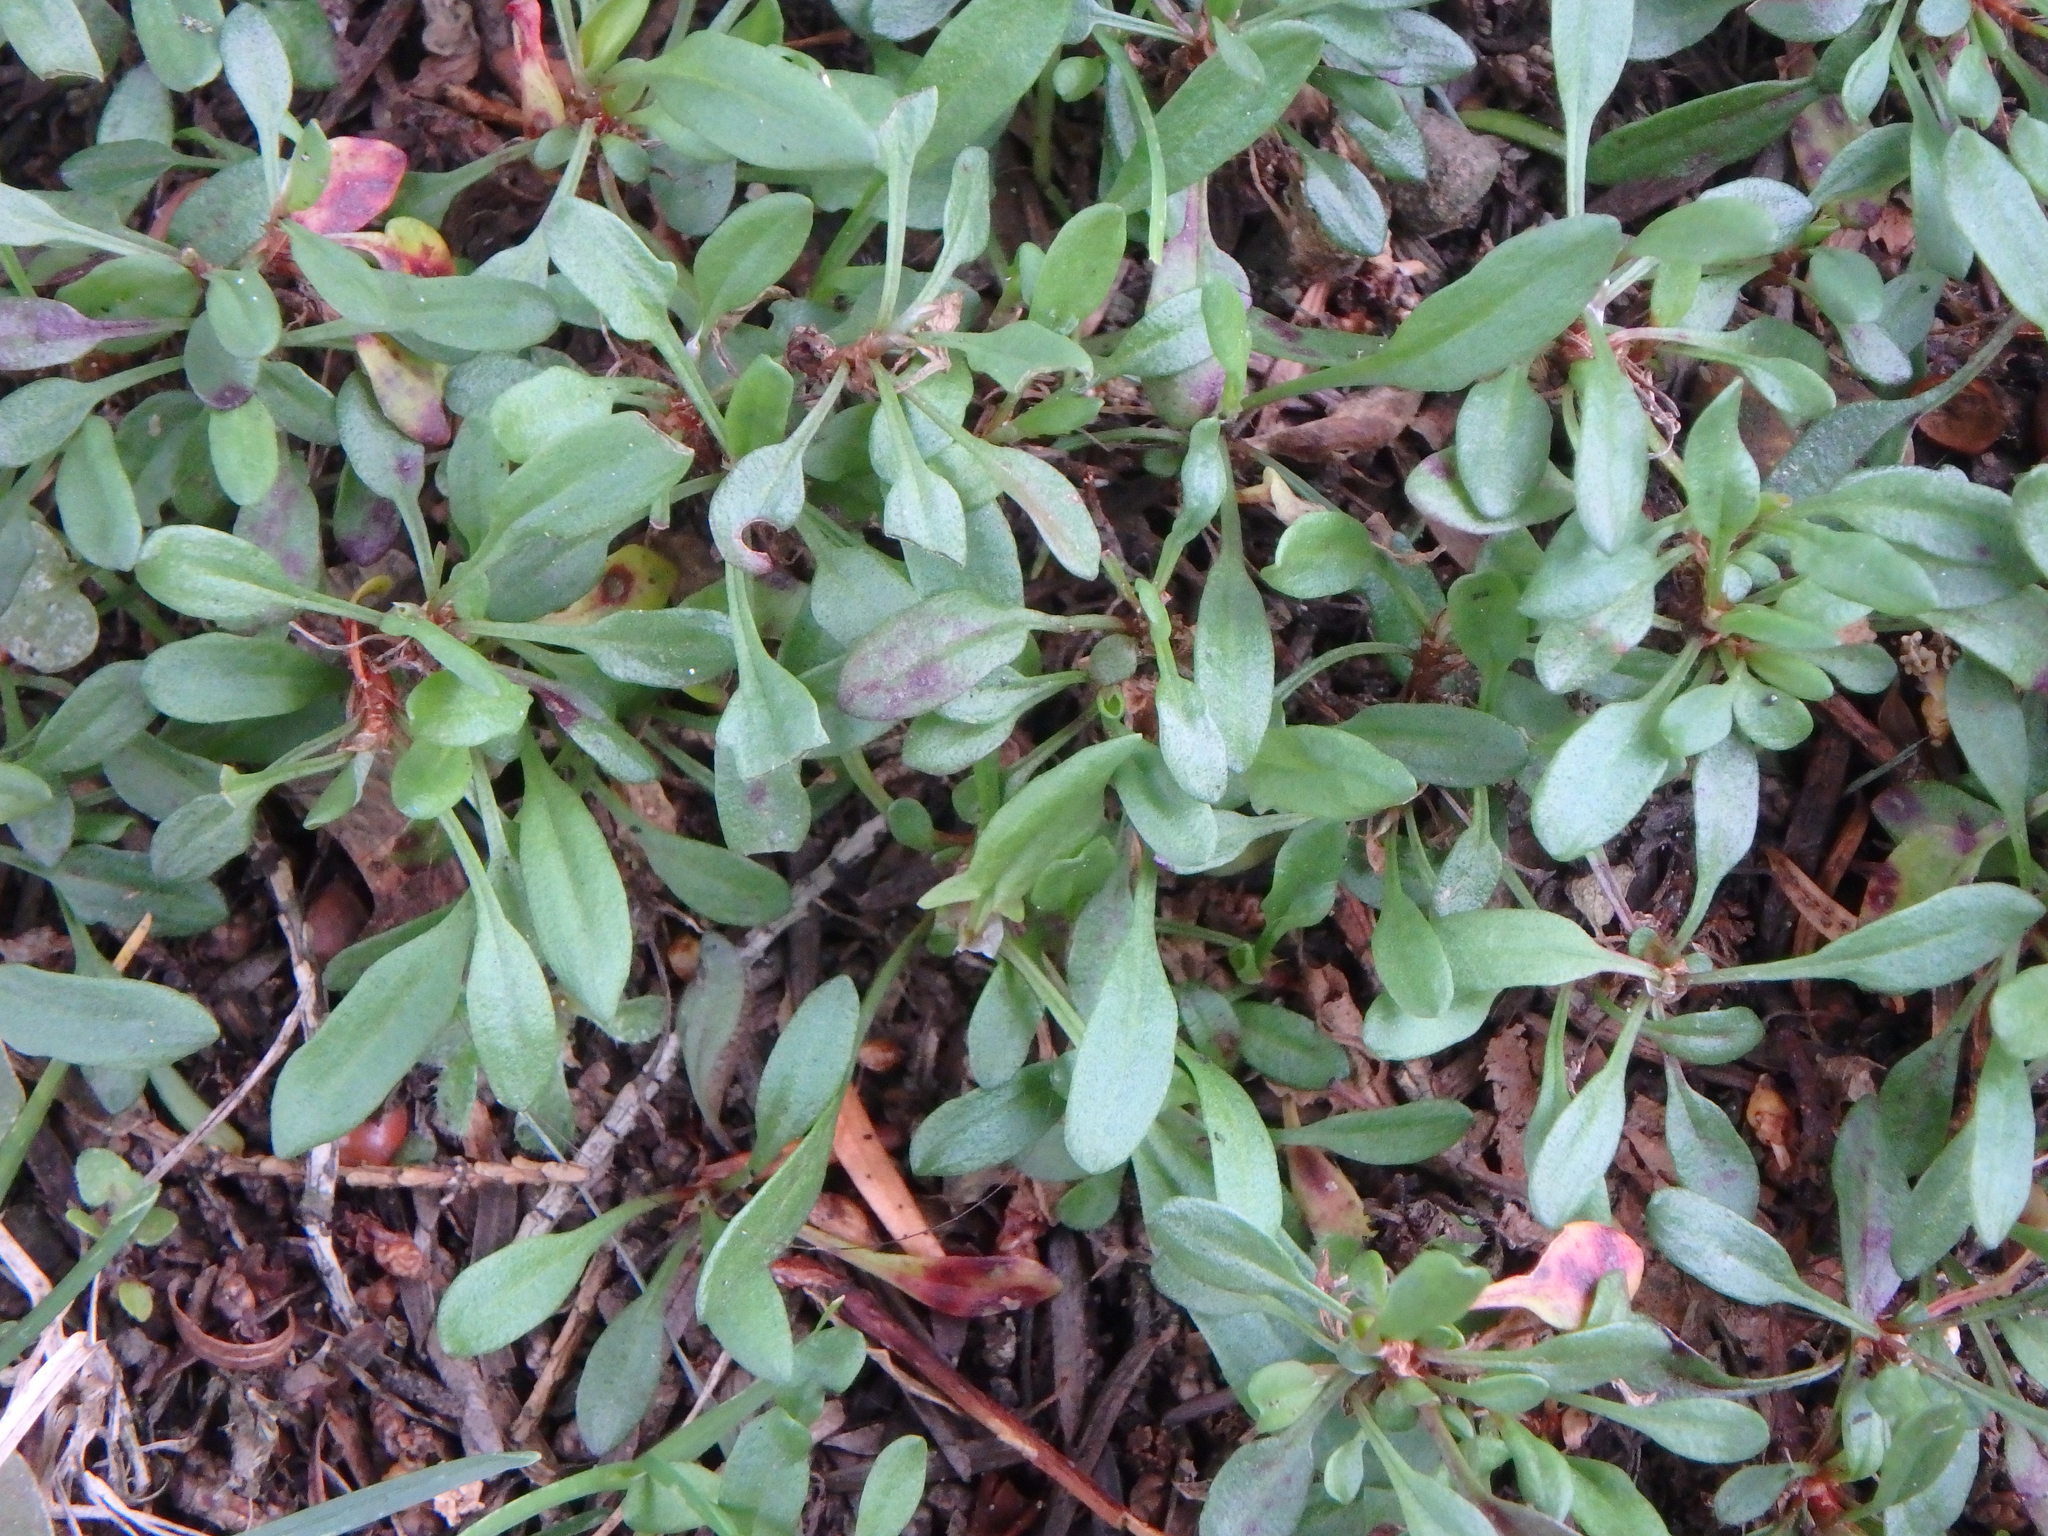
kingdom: Plantae
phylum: Tracheophyta
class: Magnoliopsida
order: Caryophyllales
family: Polygonaceae
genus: Rumex
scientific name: Rumex acetosella
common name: Common sheep sorrel
